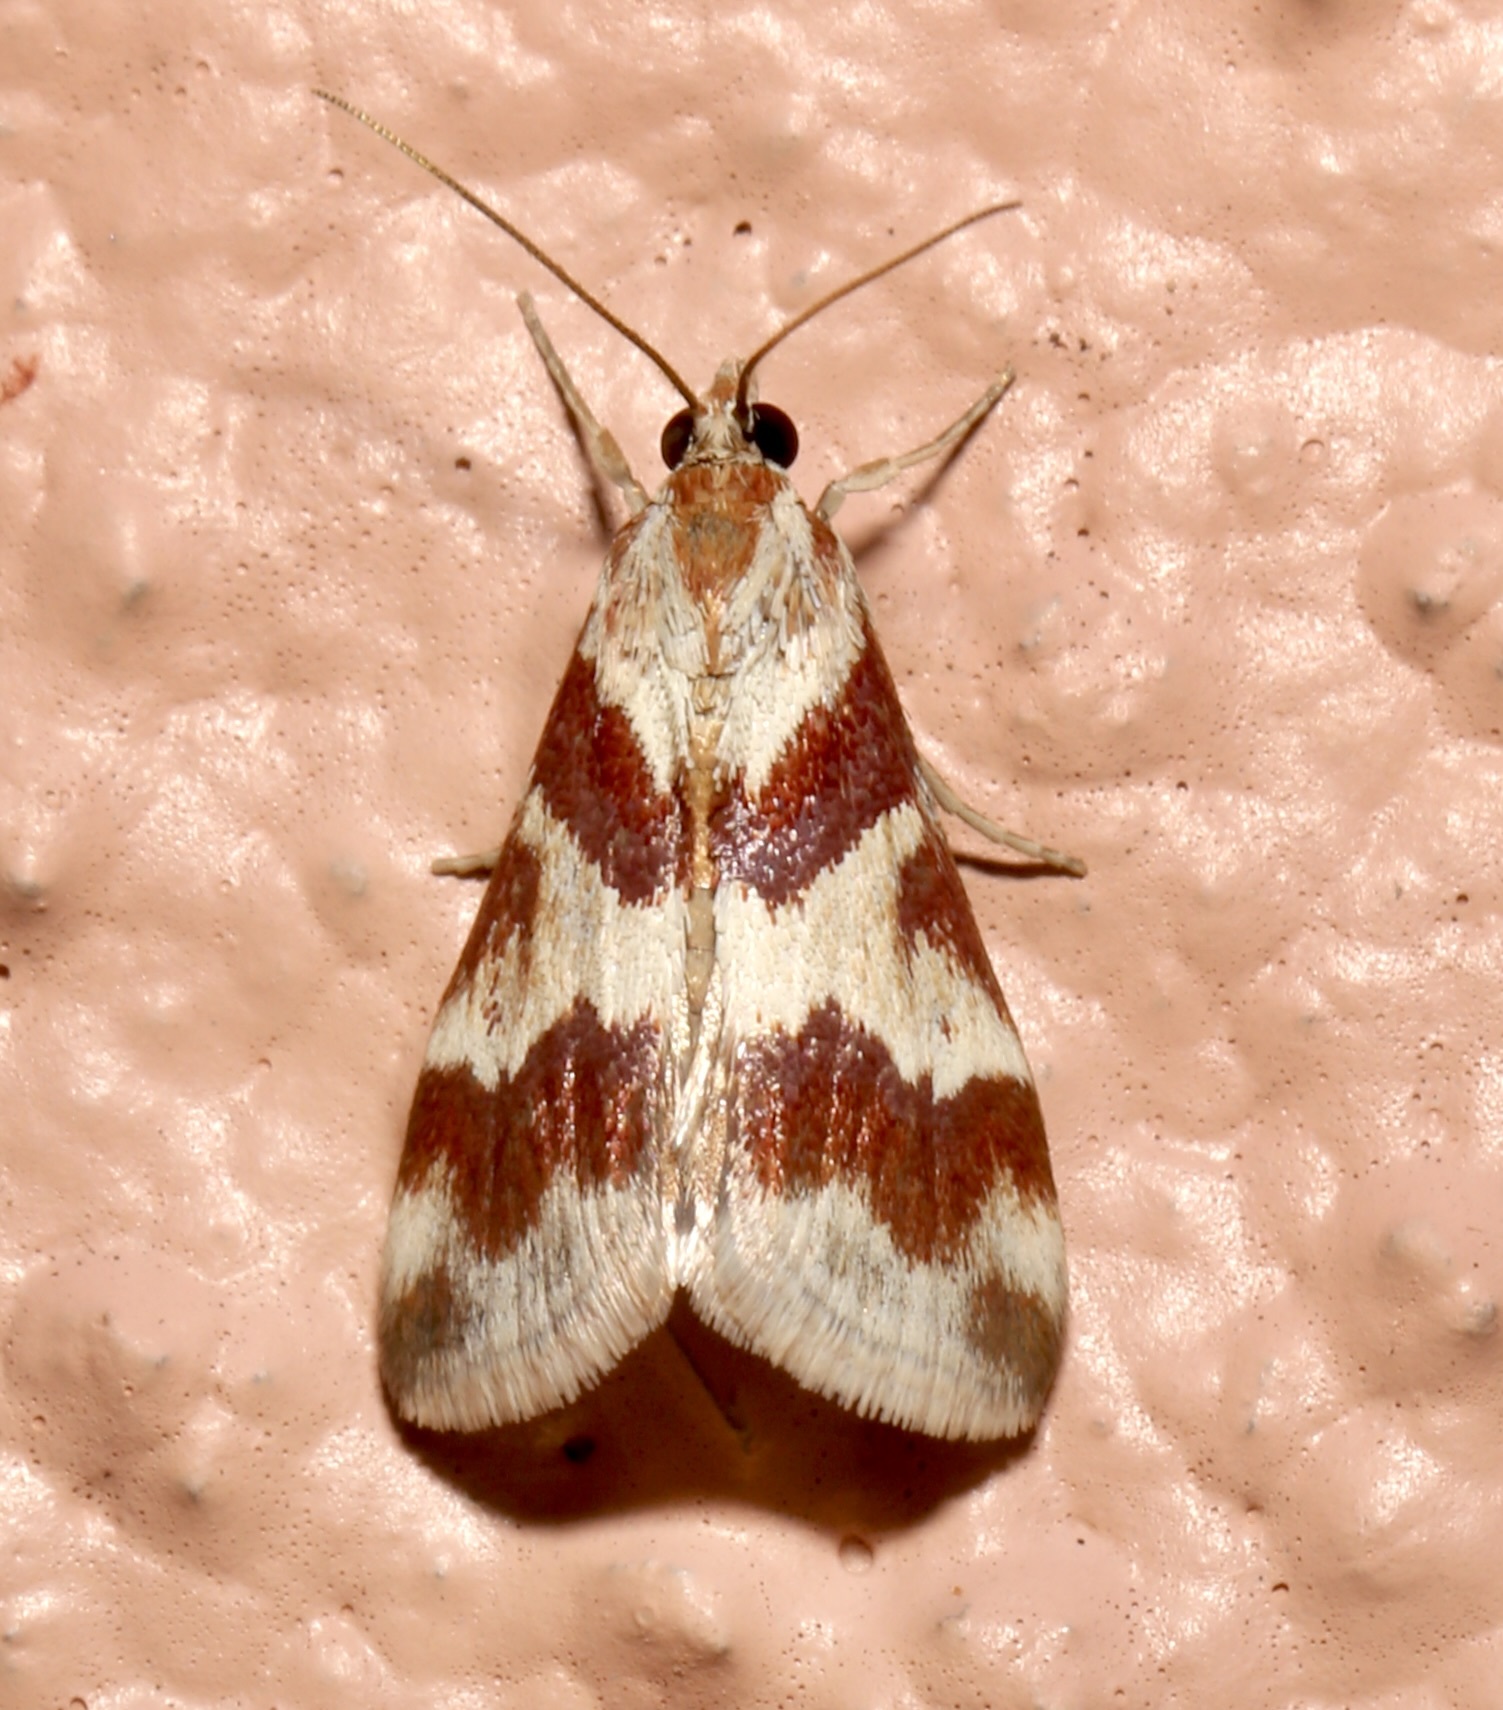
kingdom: Animalia
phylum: Arthropoda
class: Insecta
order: Lepidoptera
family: Crambidae
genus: Noctuelia
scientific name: Noctuelia Mimoschinia rufofascialis
